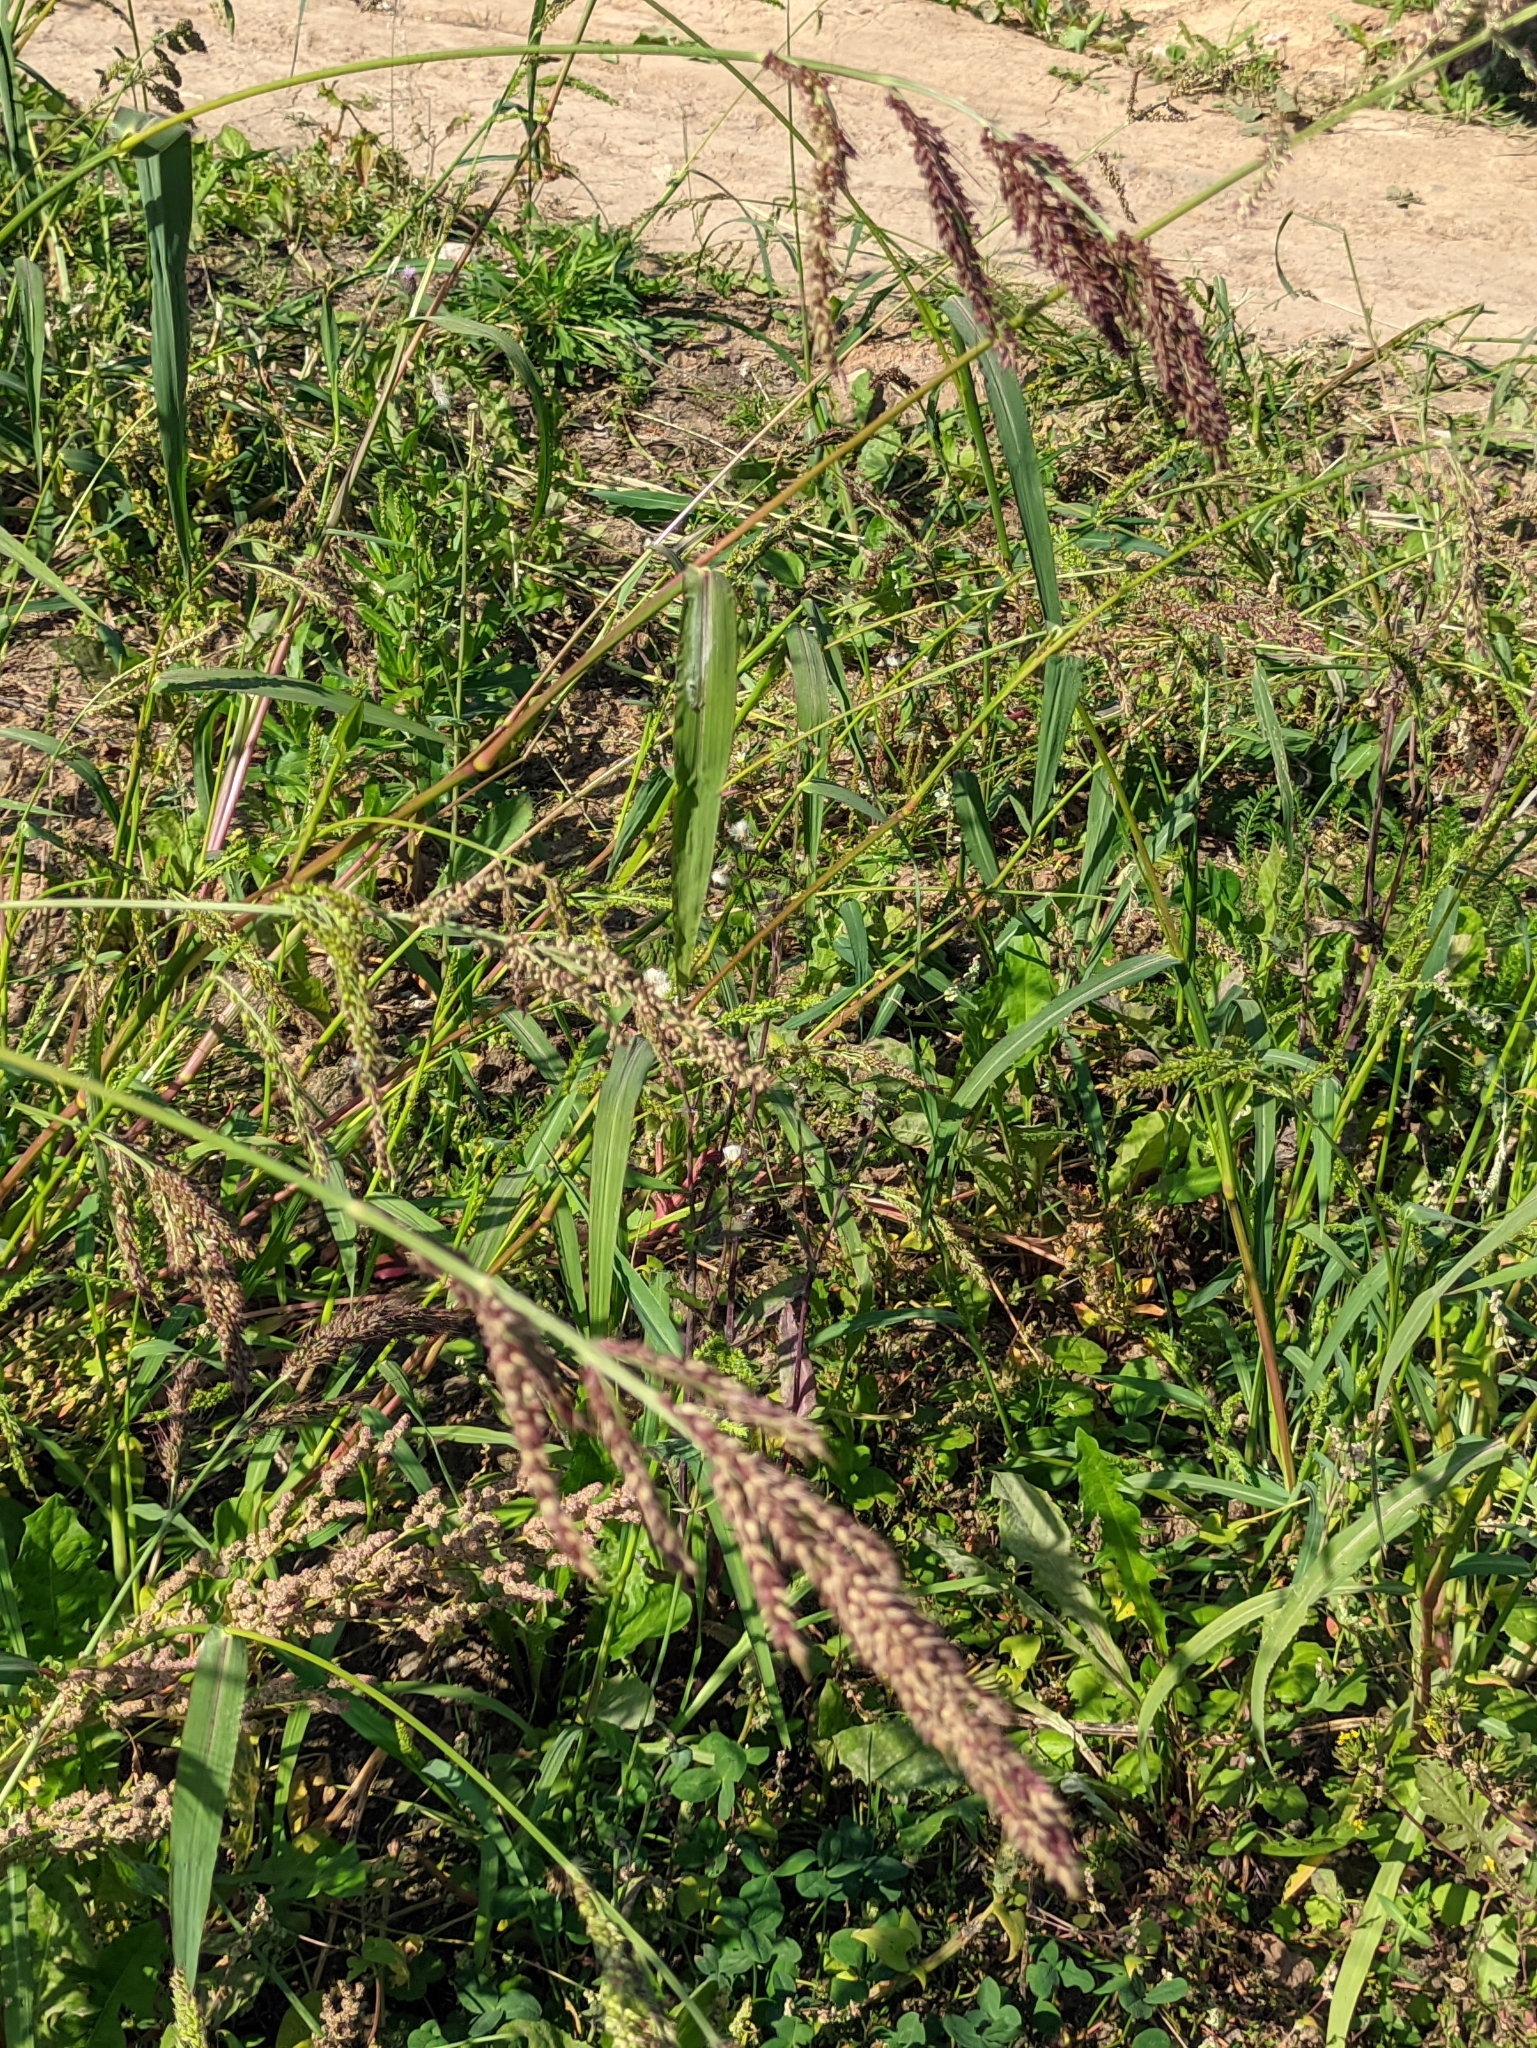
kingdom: Plantae
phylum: Tracheophyta
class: Liliopsida
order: Poales
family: Poaceae
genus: Echinochloa
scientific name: Echinochloa crus-galli
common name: Cockspur
